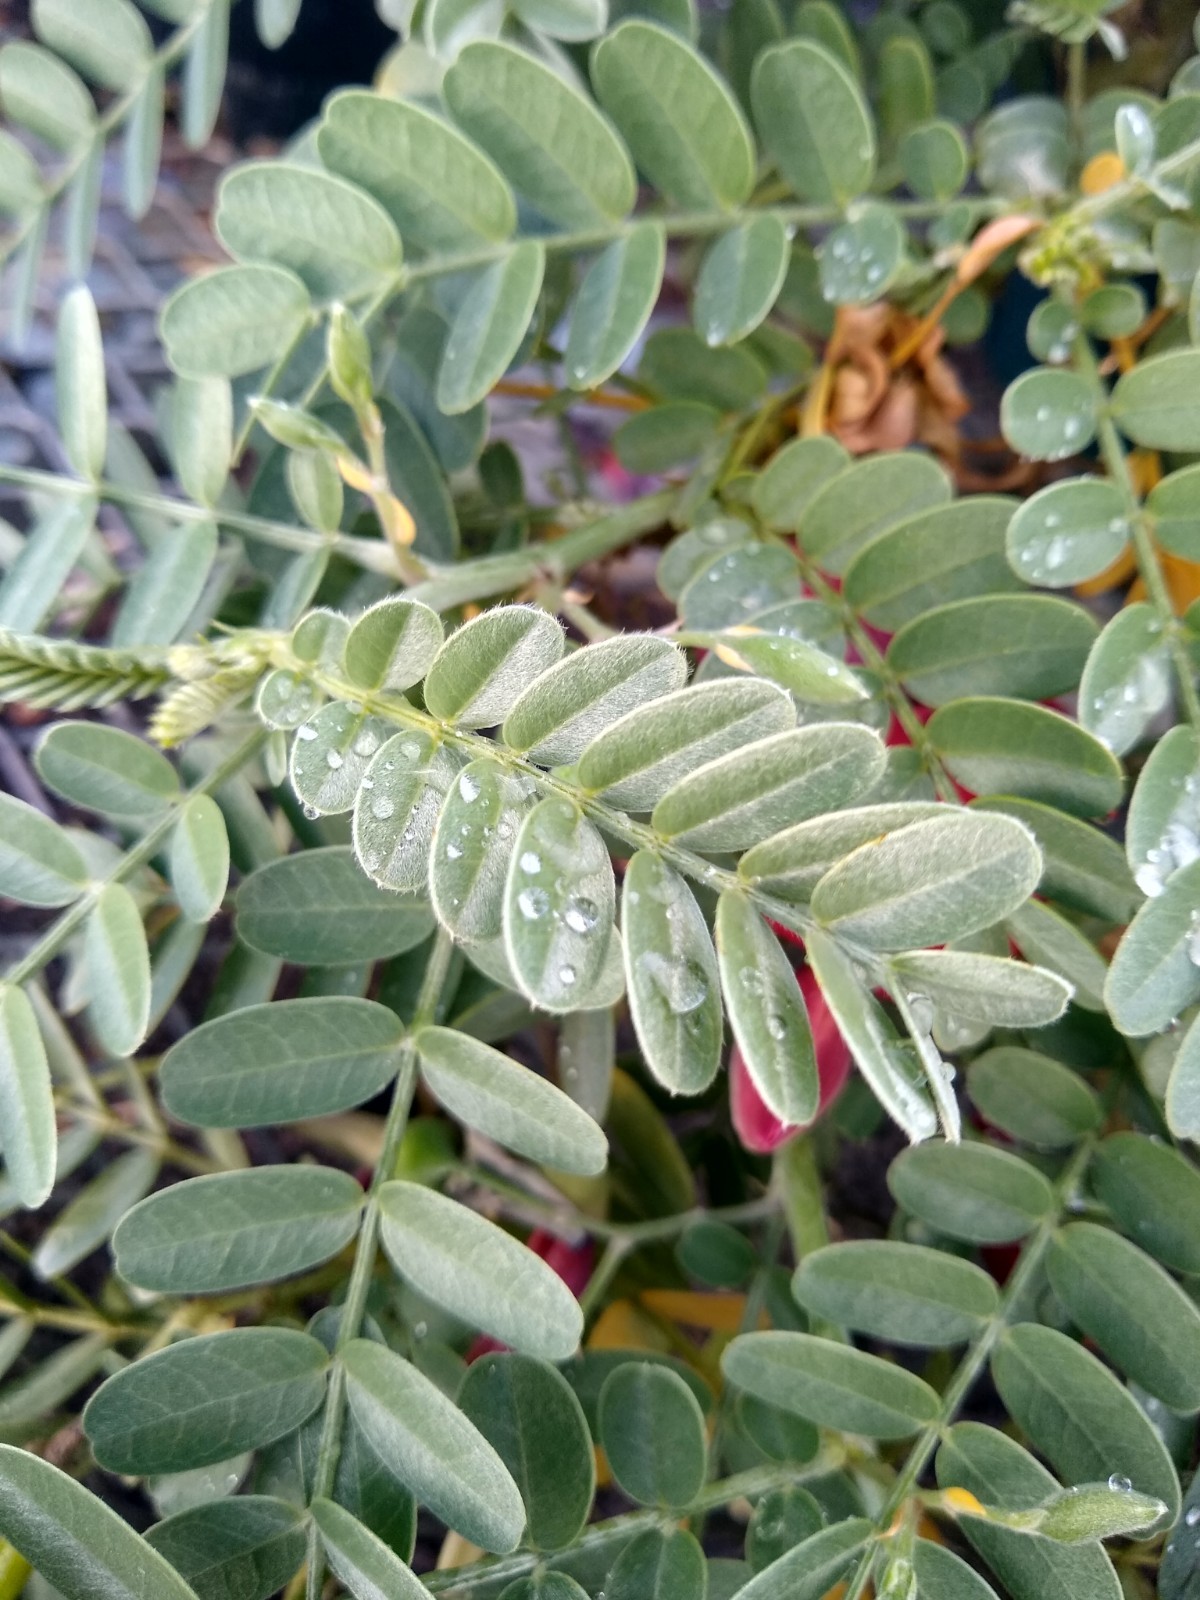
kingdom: Plantae
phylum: Tracheophyta
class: Magnoliopsida
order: Fabales
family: Fabaceae
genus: Sesbania
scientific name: Sesbania tomentosa
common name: `ohai
